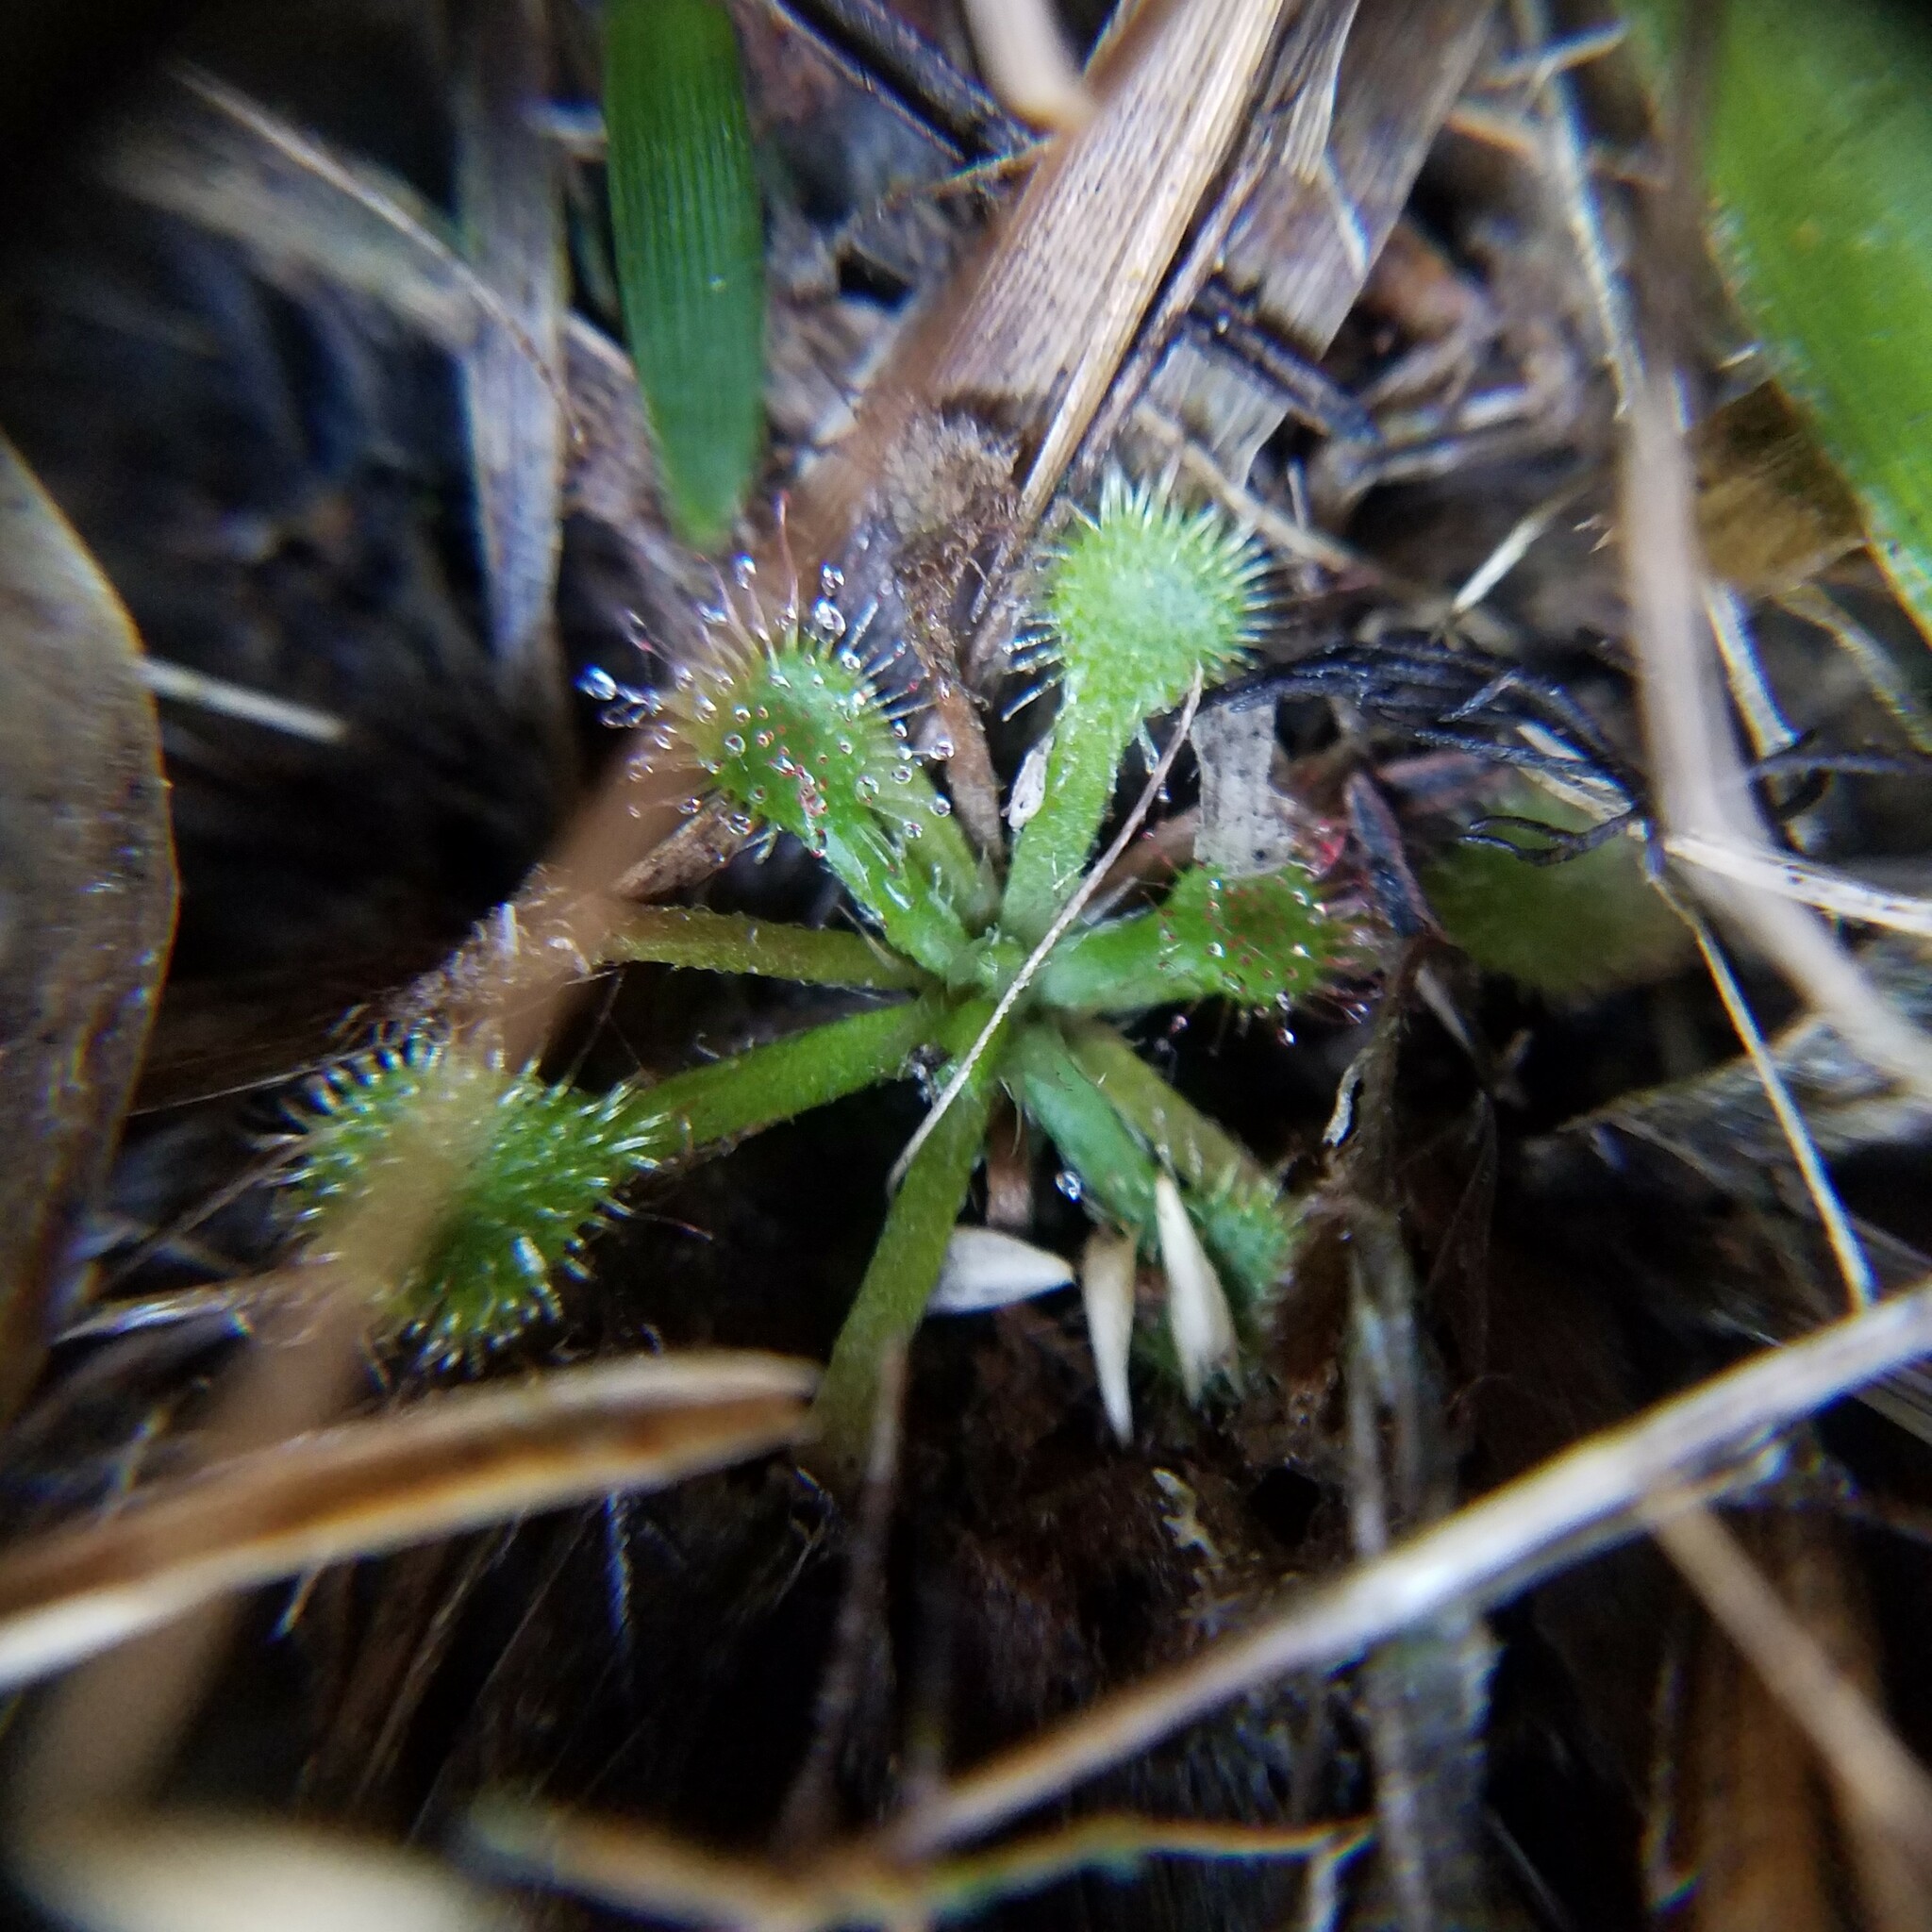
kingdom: Plantae
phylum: Tracheophyta
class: Magnoliopsida
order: Caryophyllales
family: Droseraceae
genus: Drosera
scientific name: Drosera capillaris
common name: Pink sundew
